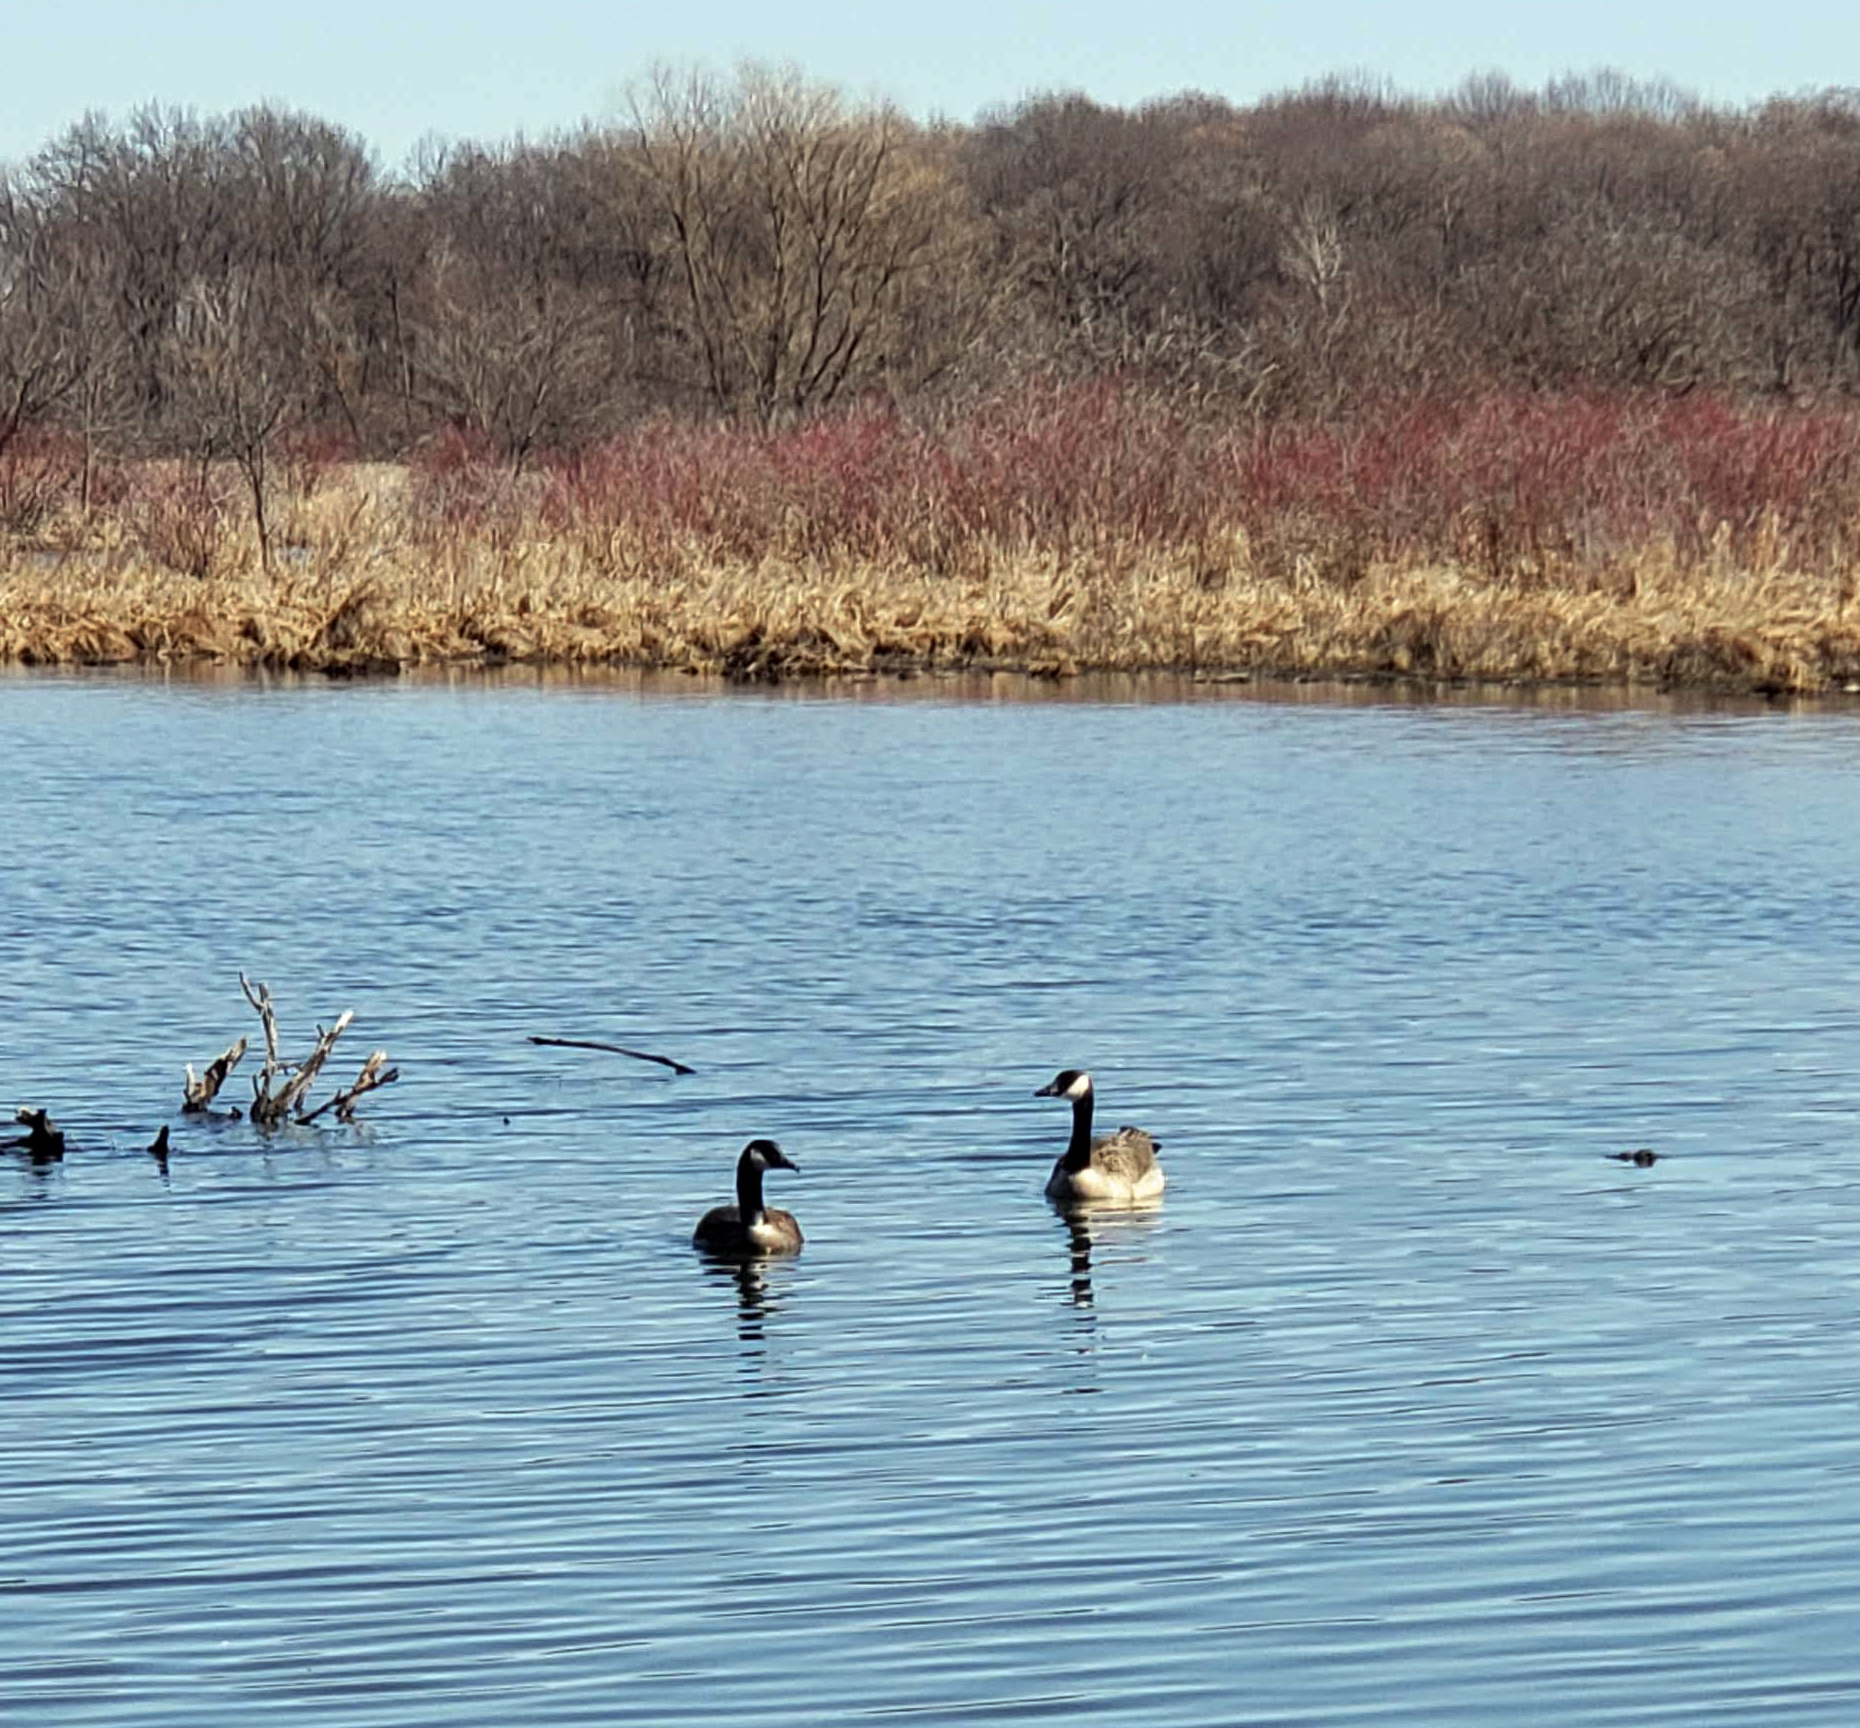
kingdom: Animalia
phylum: Chordata
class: Aves
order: Anseriformes
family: Anatidae
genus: Branta
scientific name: Branta canadensis
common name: Canada goose
